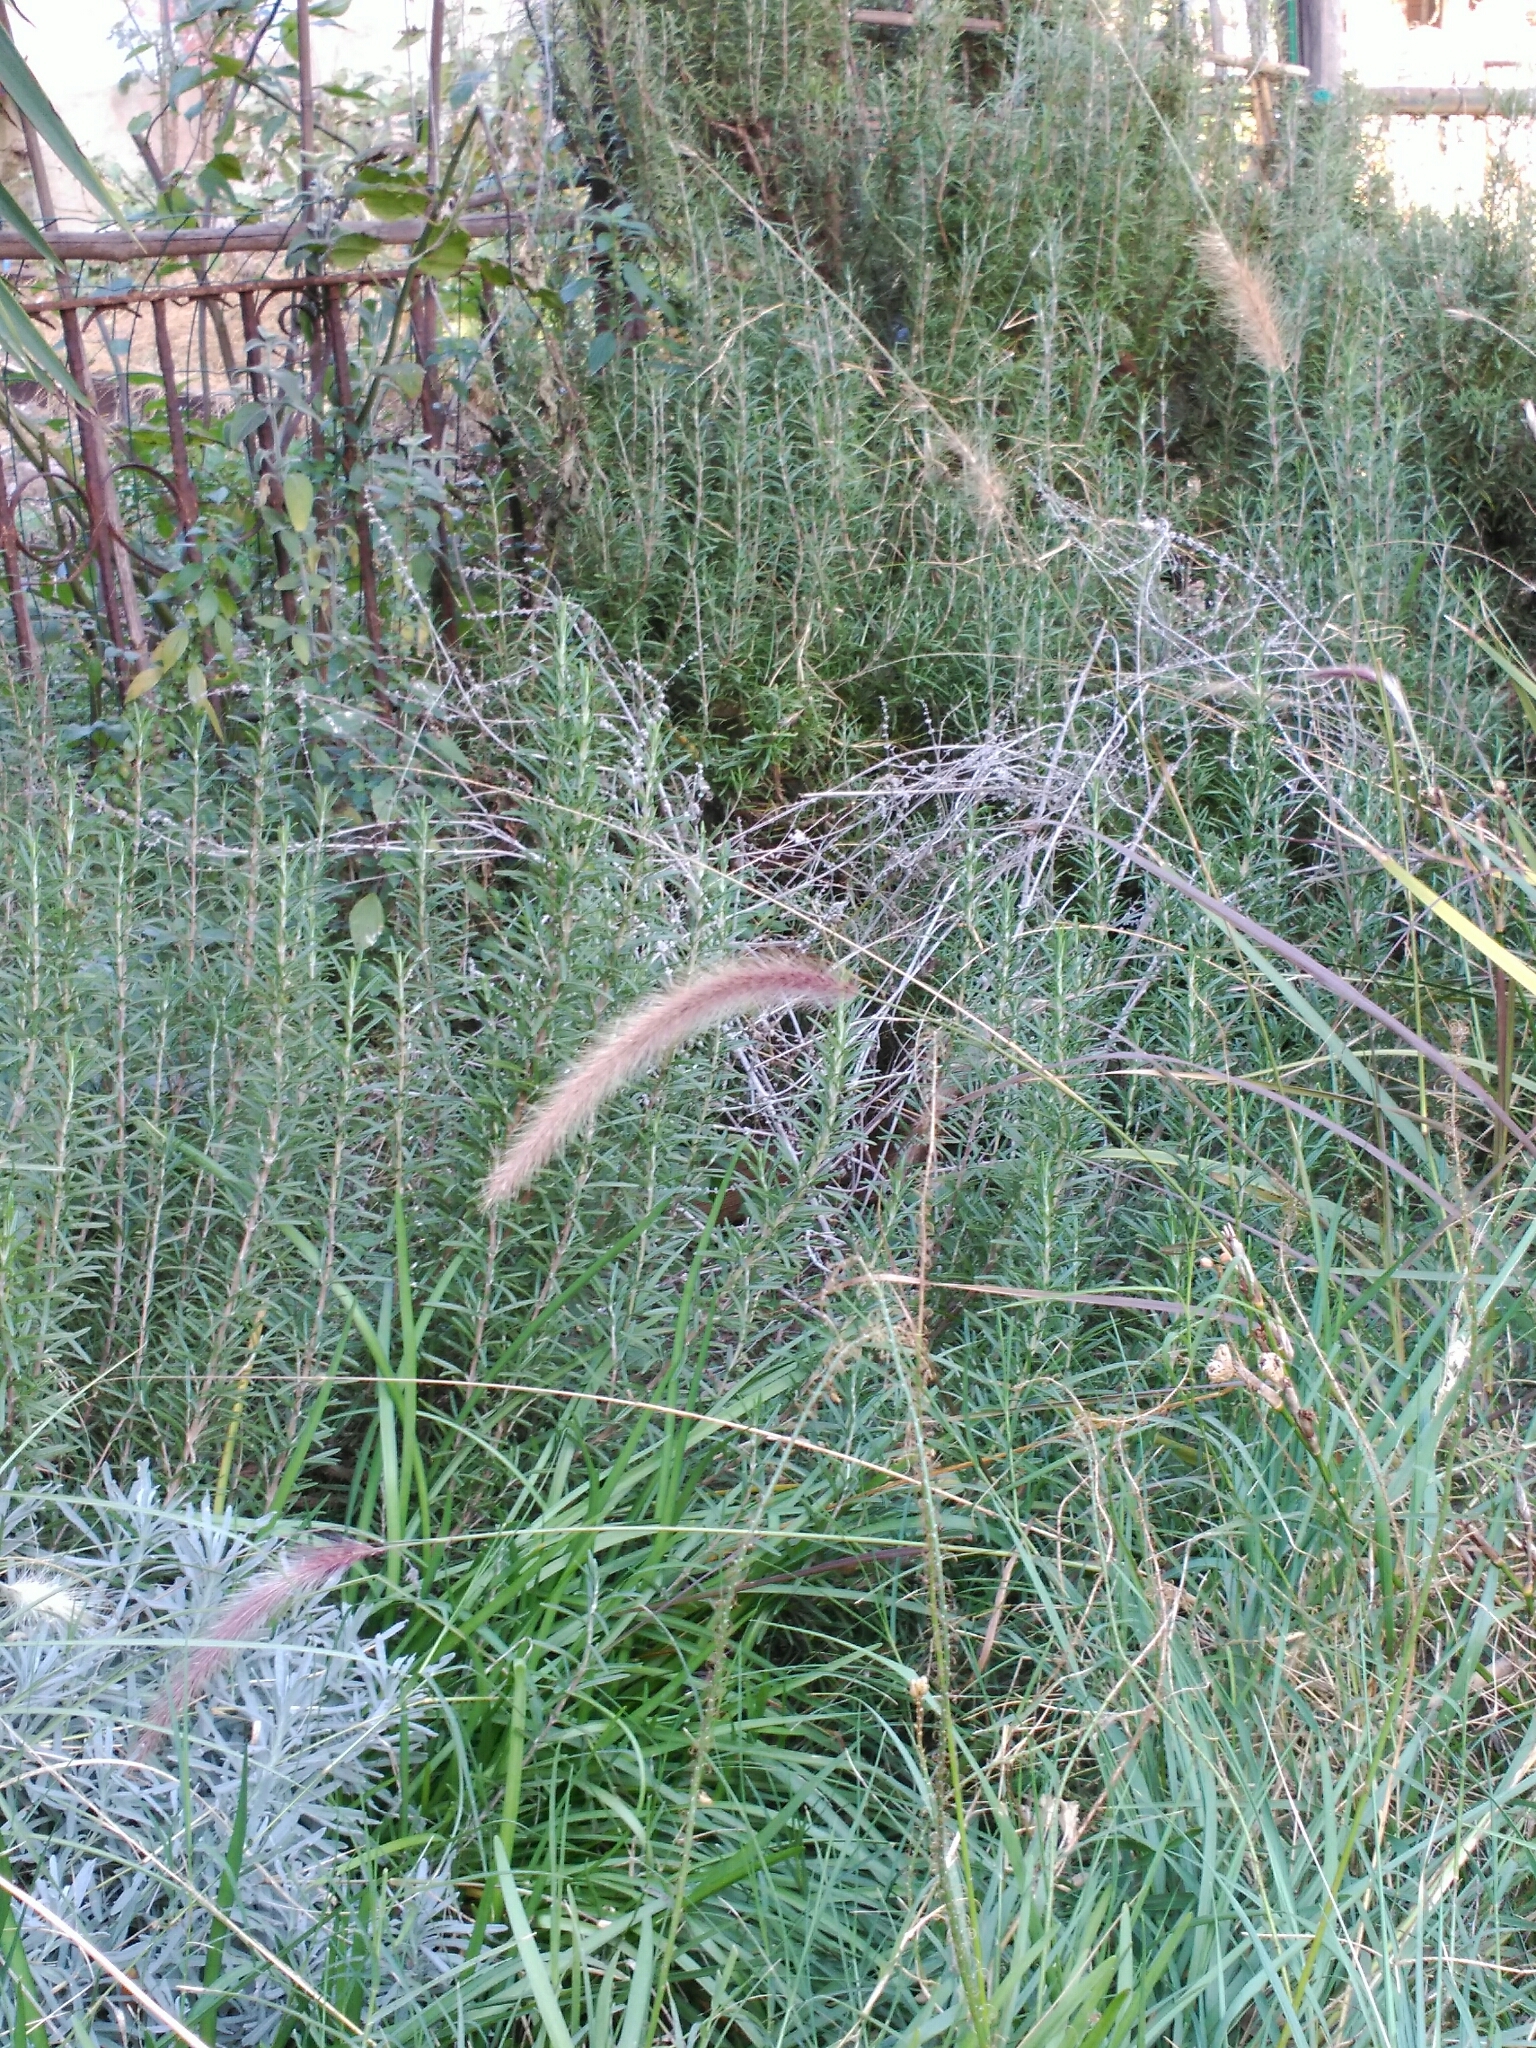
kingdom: Plantae
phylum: Tracheophyta
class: Liliopsida
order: Poales
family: Poaceae
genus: Cenchrus
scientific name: Cenchrus setaceus
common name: Crimson fountaingrass
